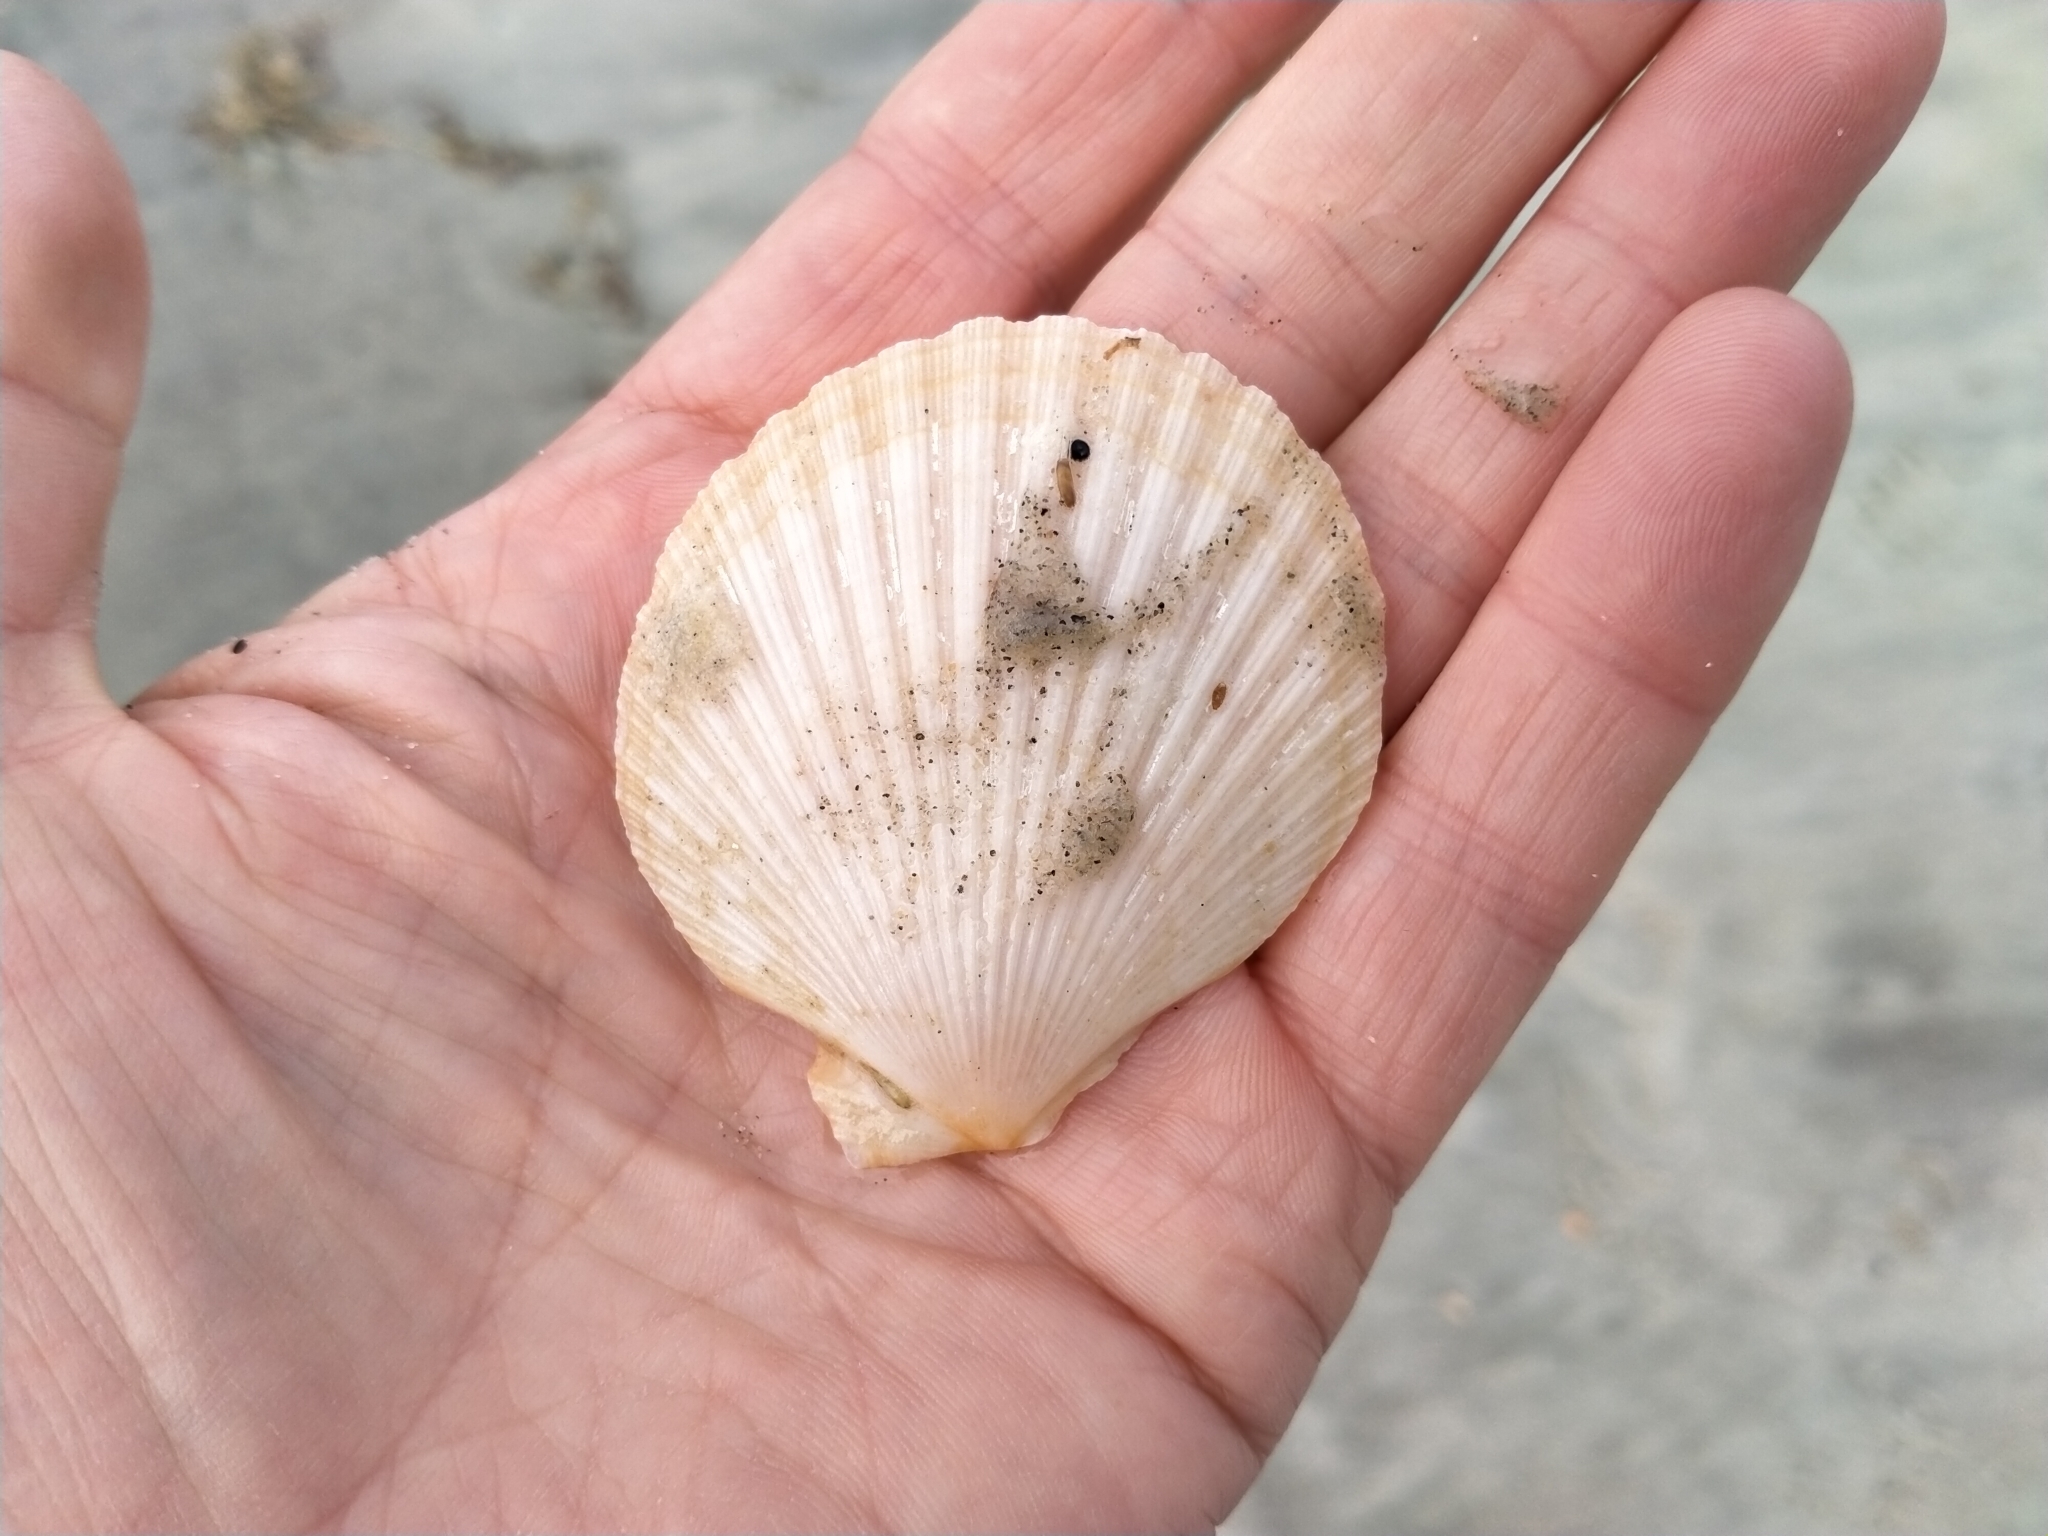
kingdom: Animalia
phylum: Mollusca
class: Bivalvia
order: Pectinida
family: Pectinidae
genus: Zygochlamys
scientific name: Zygochlamys delicatula
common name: Delicate scallop
